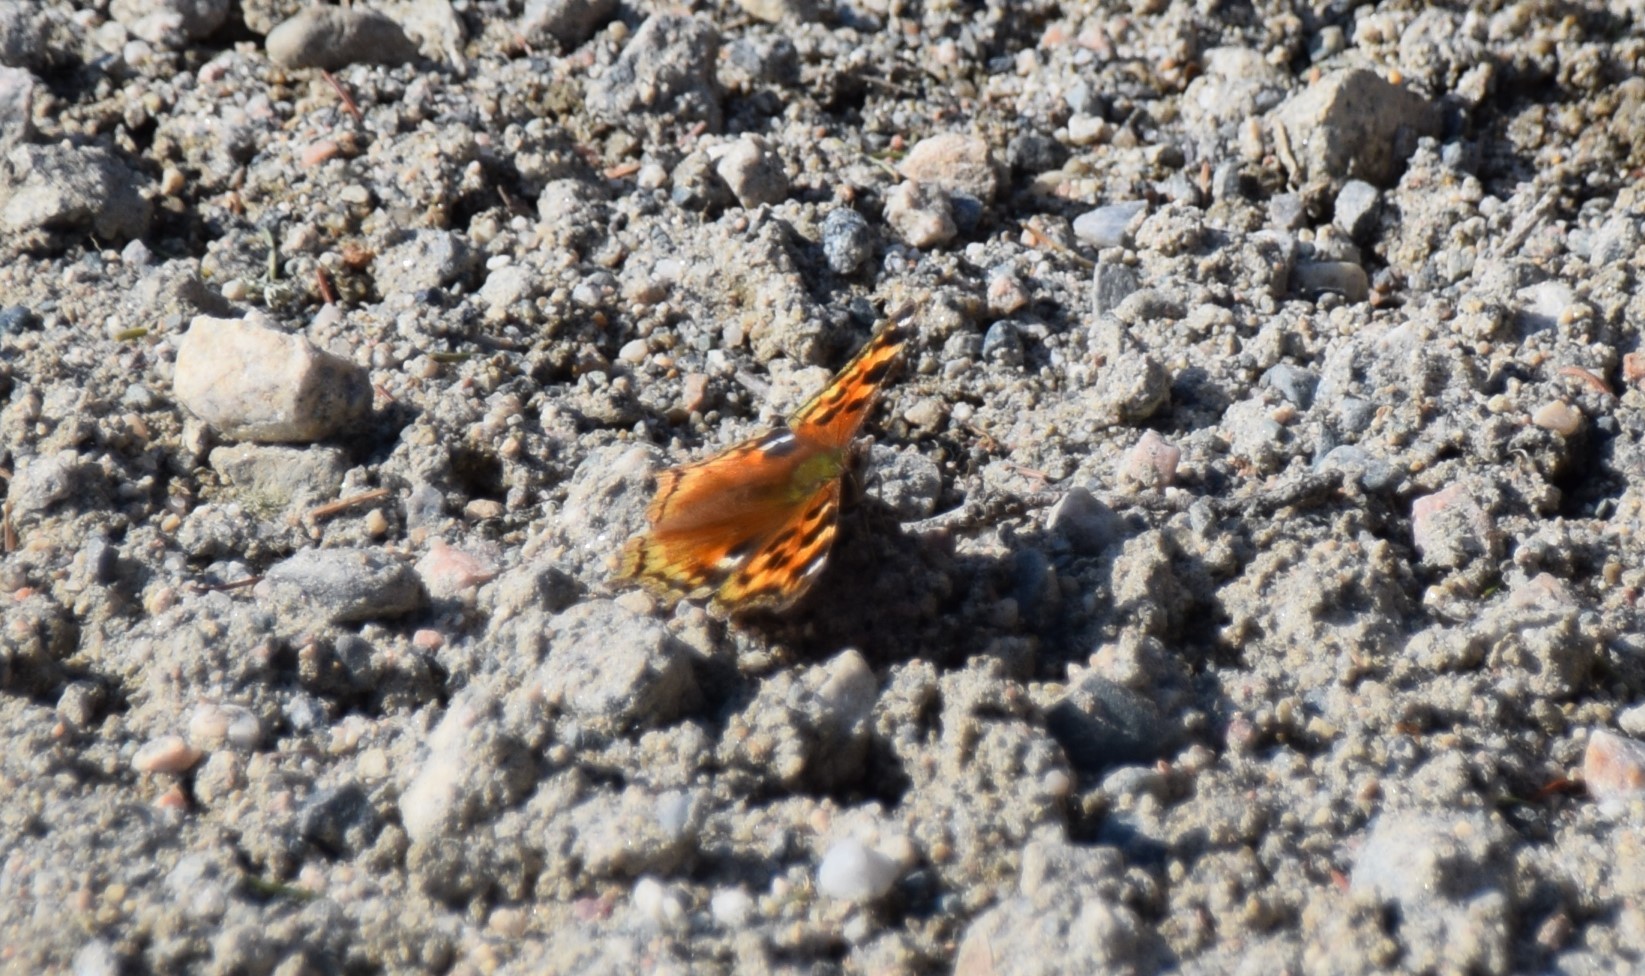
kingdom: Animalia
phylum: Arthropoda
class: Insecta
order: Lepidoptera
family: Nymphalidae
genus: Polygonia
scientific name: Polygonia vaualbum
